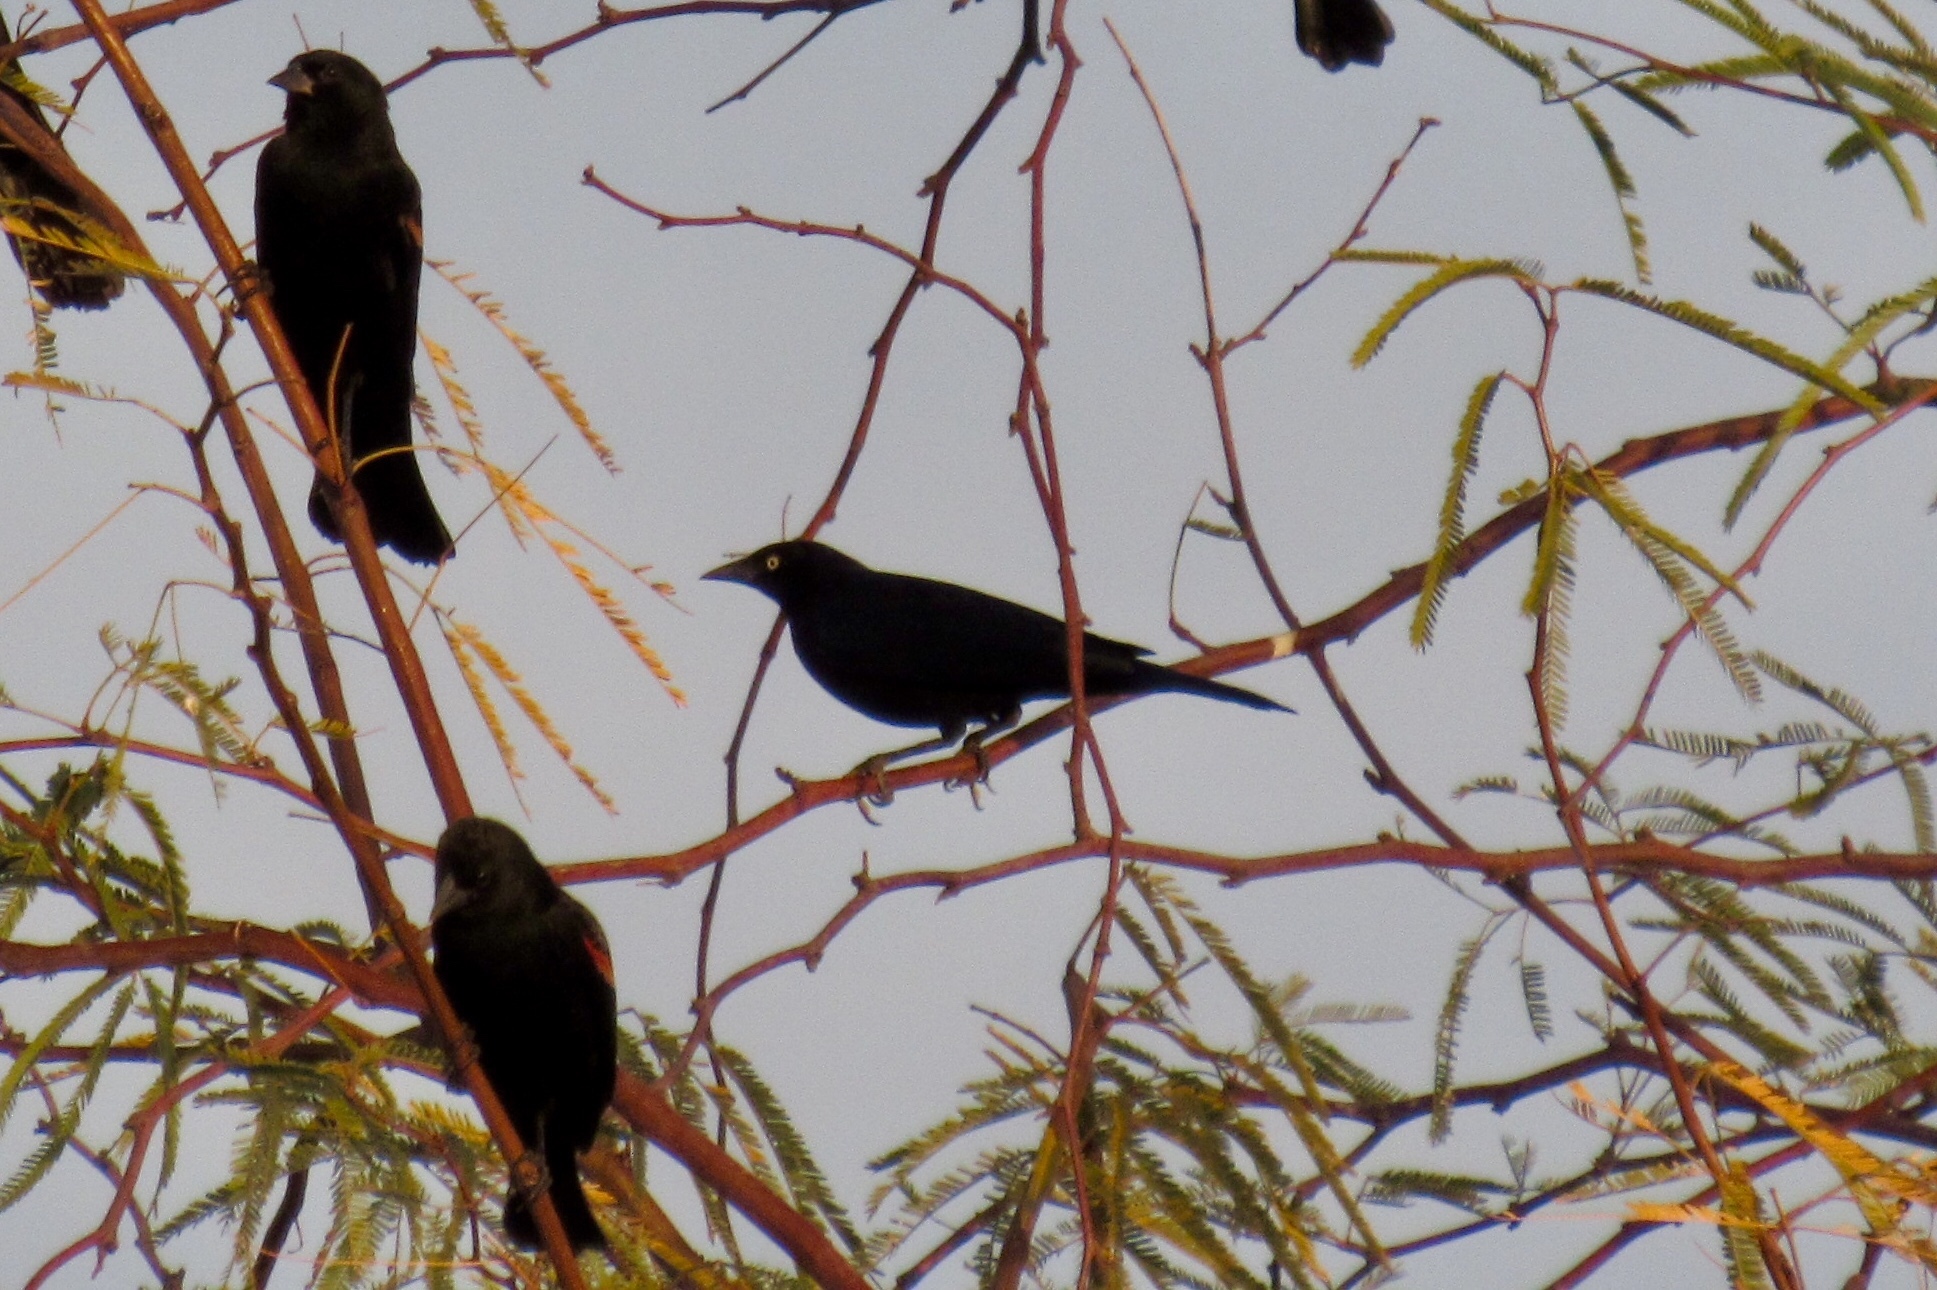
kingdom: Animalia
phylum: Chordata
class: Aves
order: Passeriformes
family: Icteridae
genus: Euphagus
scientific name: Euphagus cyanocephalus
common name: Brewer's blackbird
